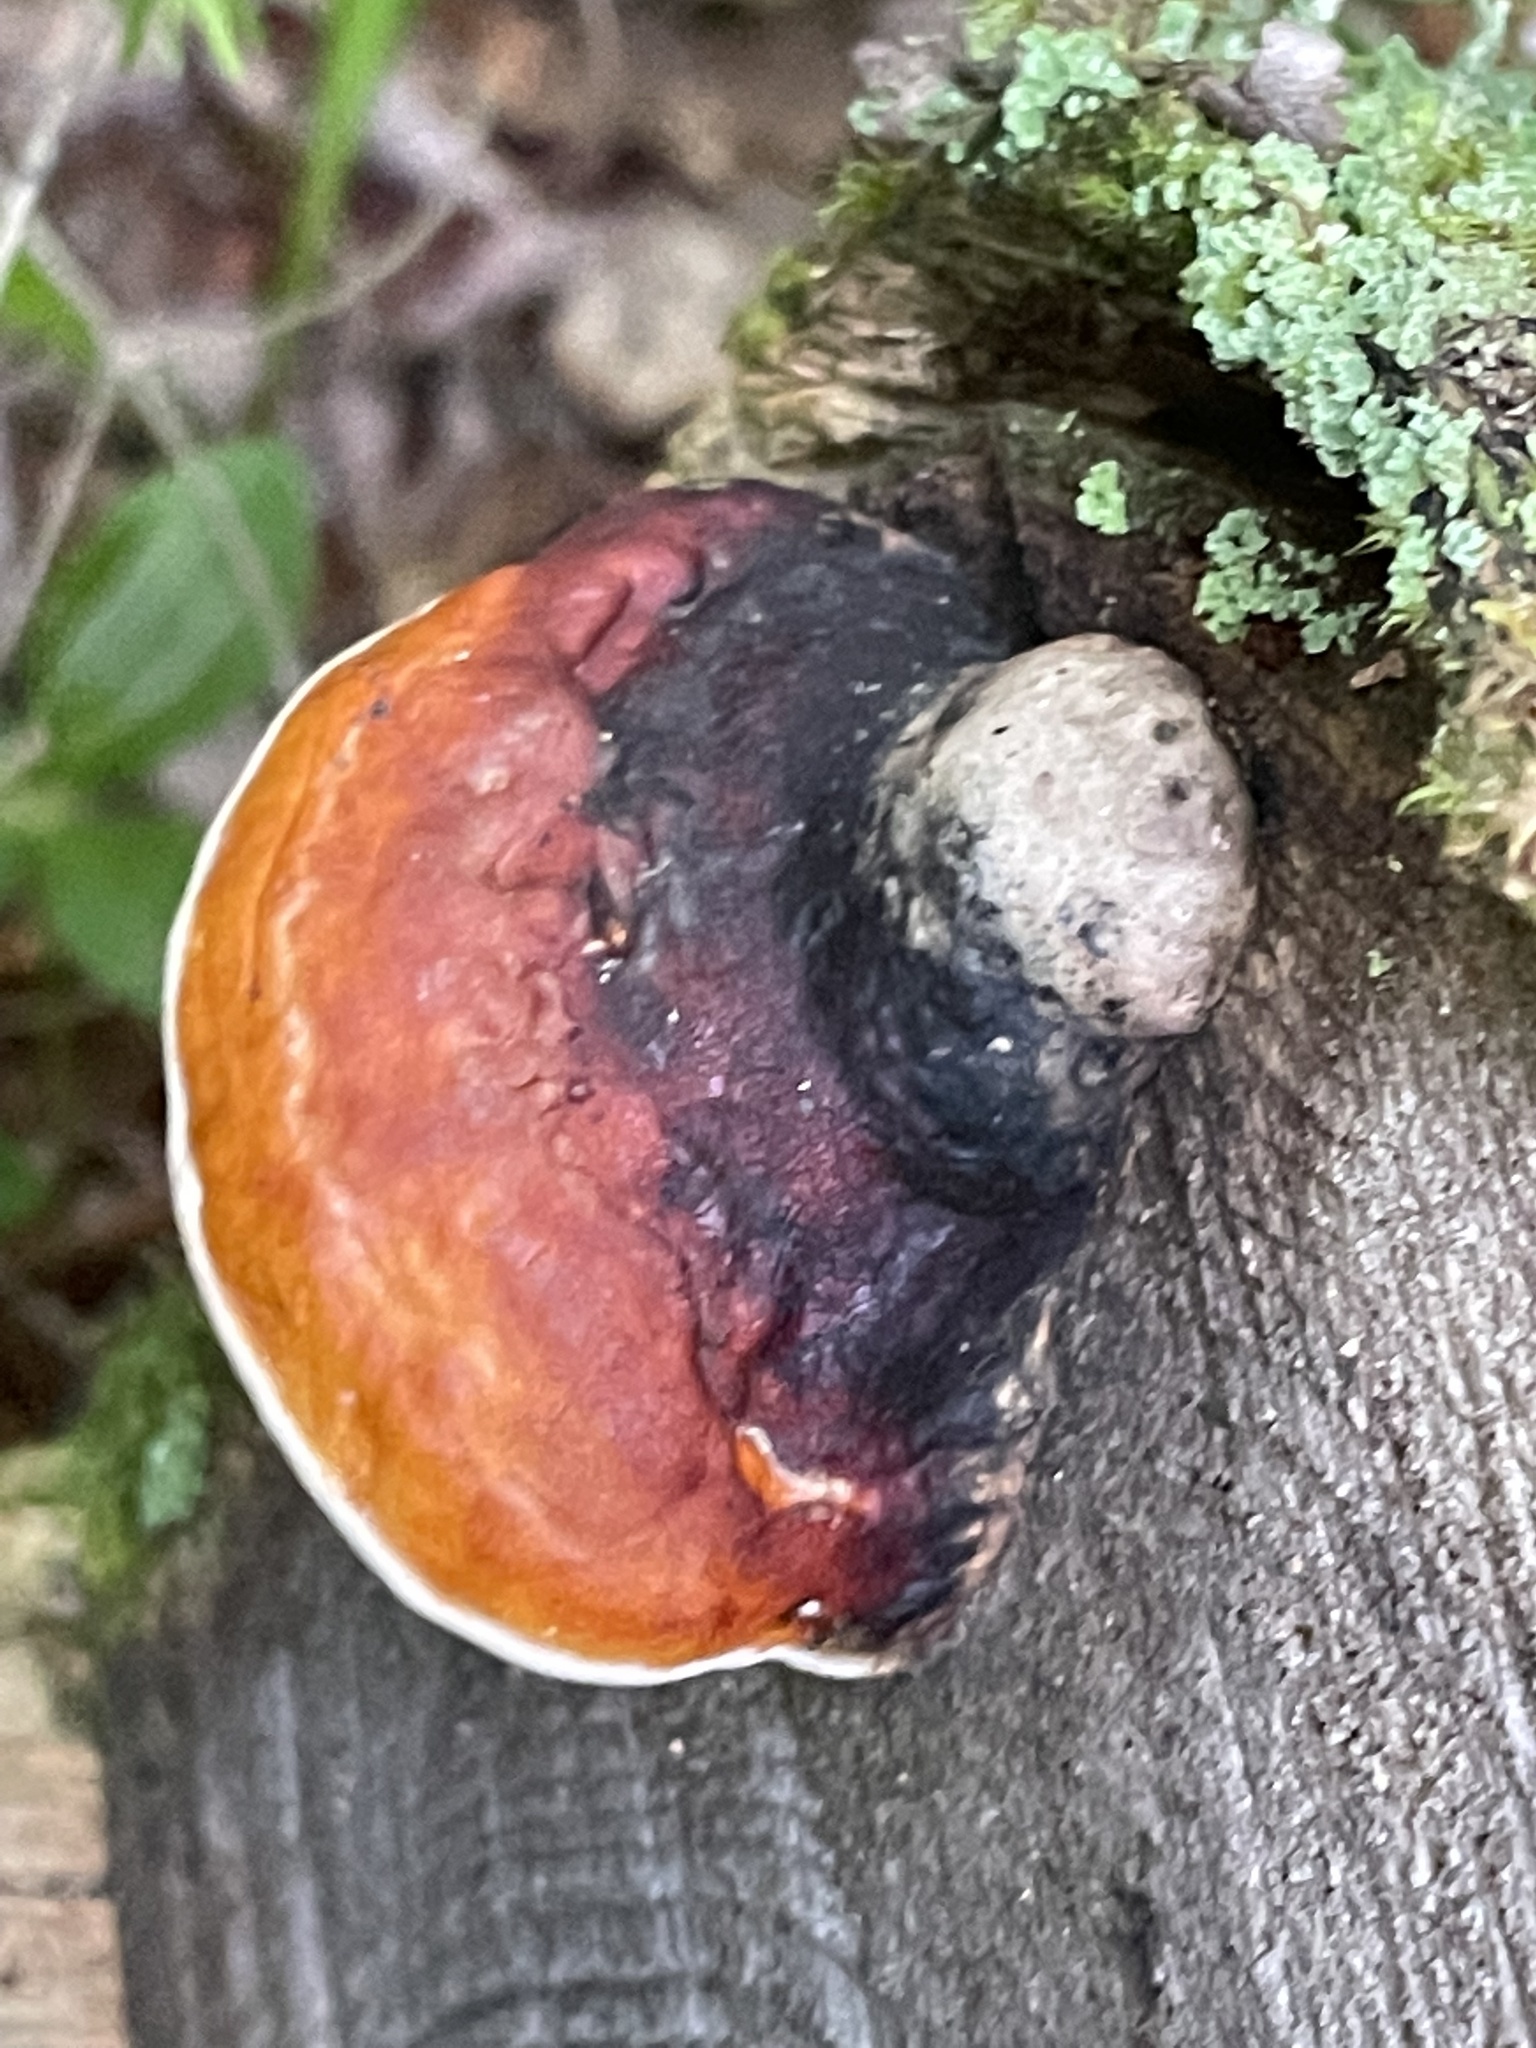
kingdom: Fungi
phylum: Basidiomycota
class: Agaricomycetes
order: Polyporales
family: Fomitopsidaceae
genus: Fomitopsis
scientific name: Fomitopsis mounceae
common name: Northern red belt
